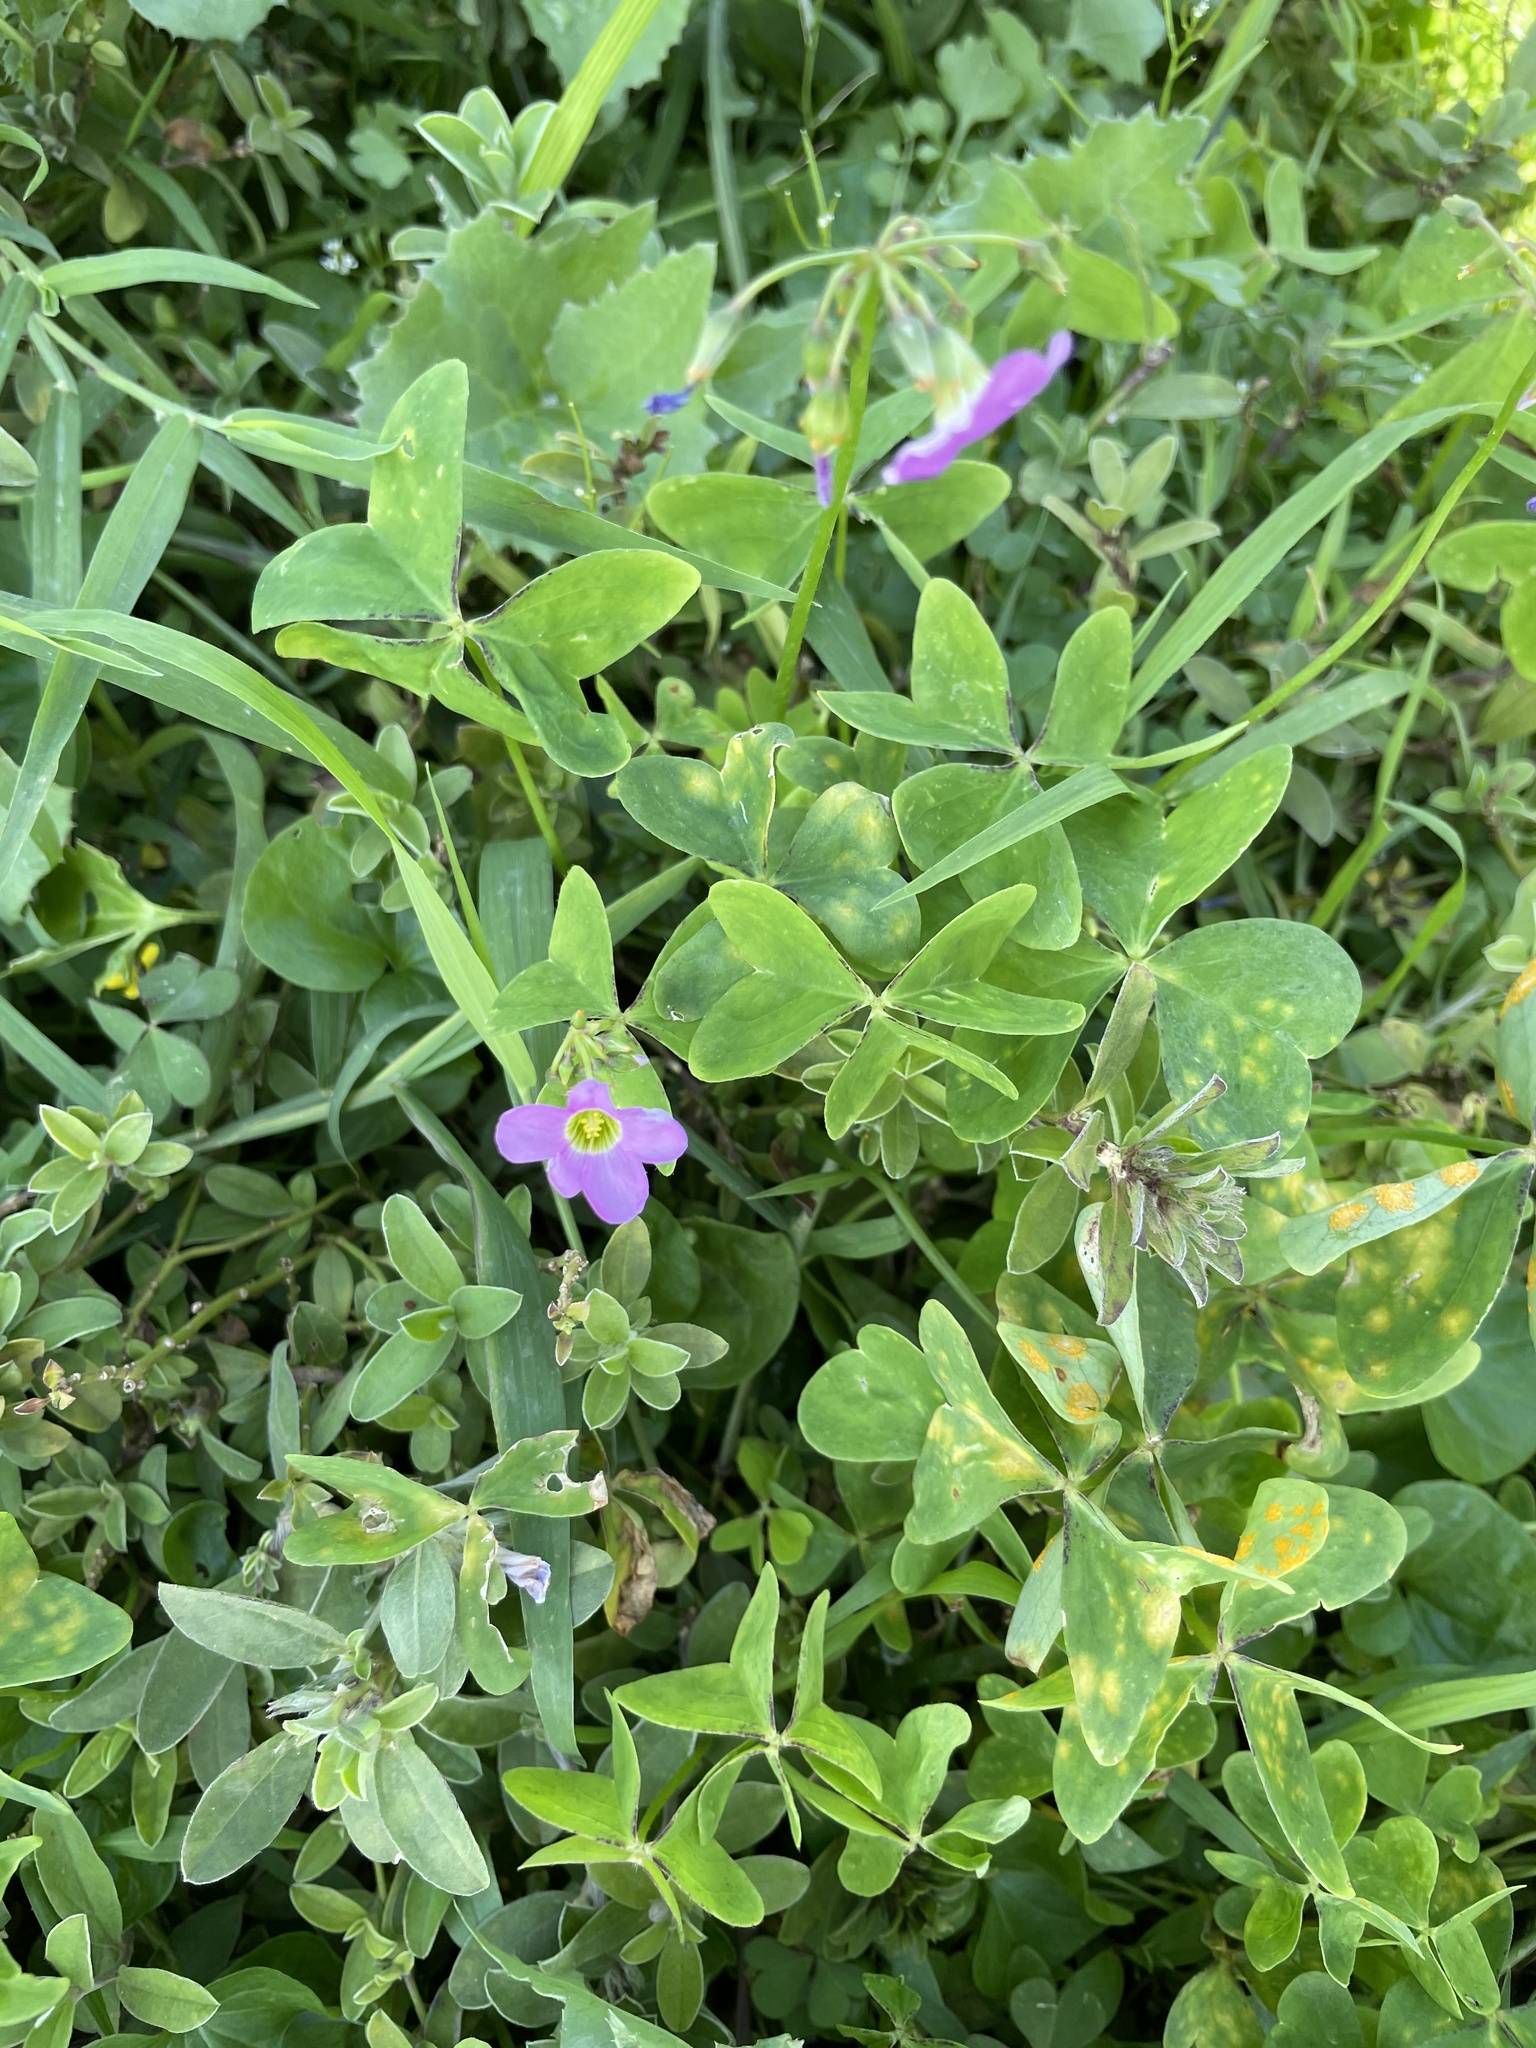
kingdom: Plantae
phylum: Tracheophyta
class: Magnoliopsida
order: Oxalidales
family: Oxalidaceae
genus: Oxalis
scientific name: Oxalis latifolia
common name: Garden pink-sorrel
